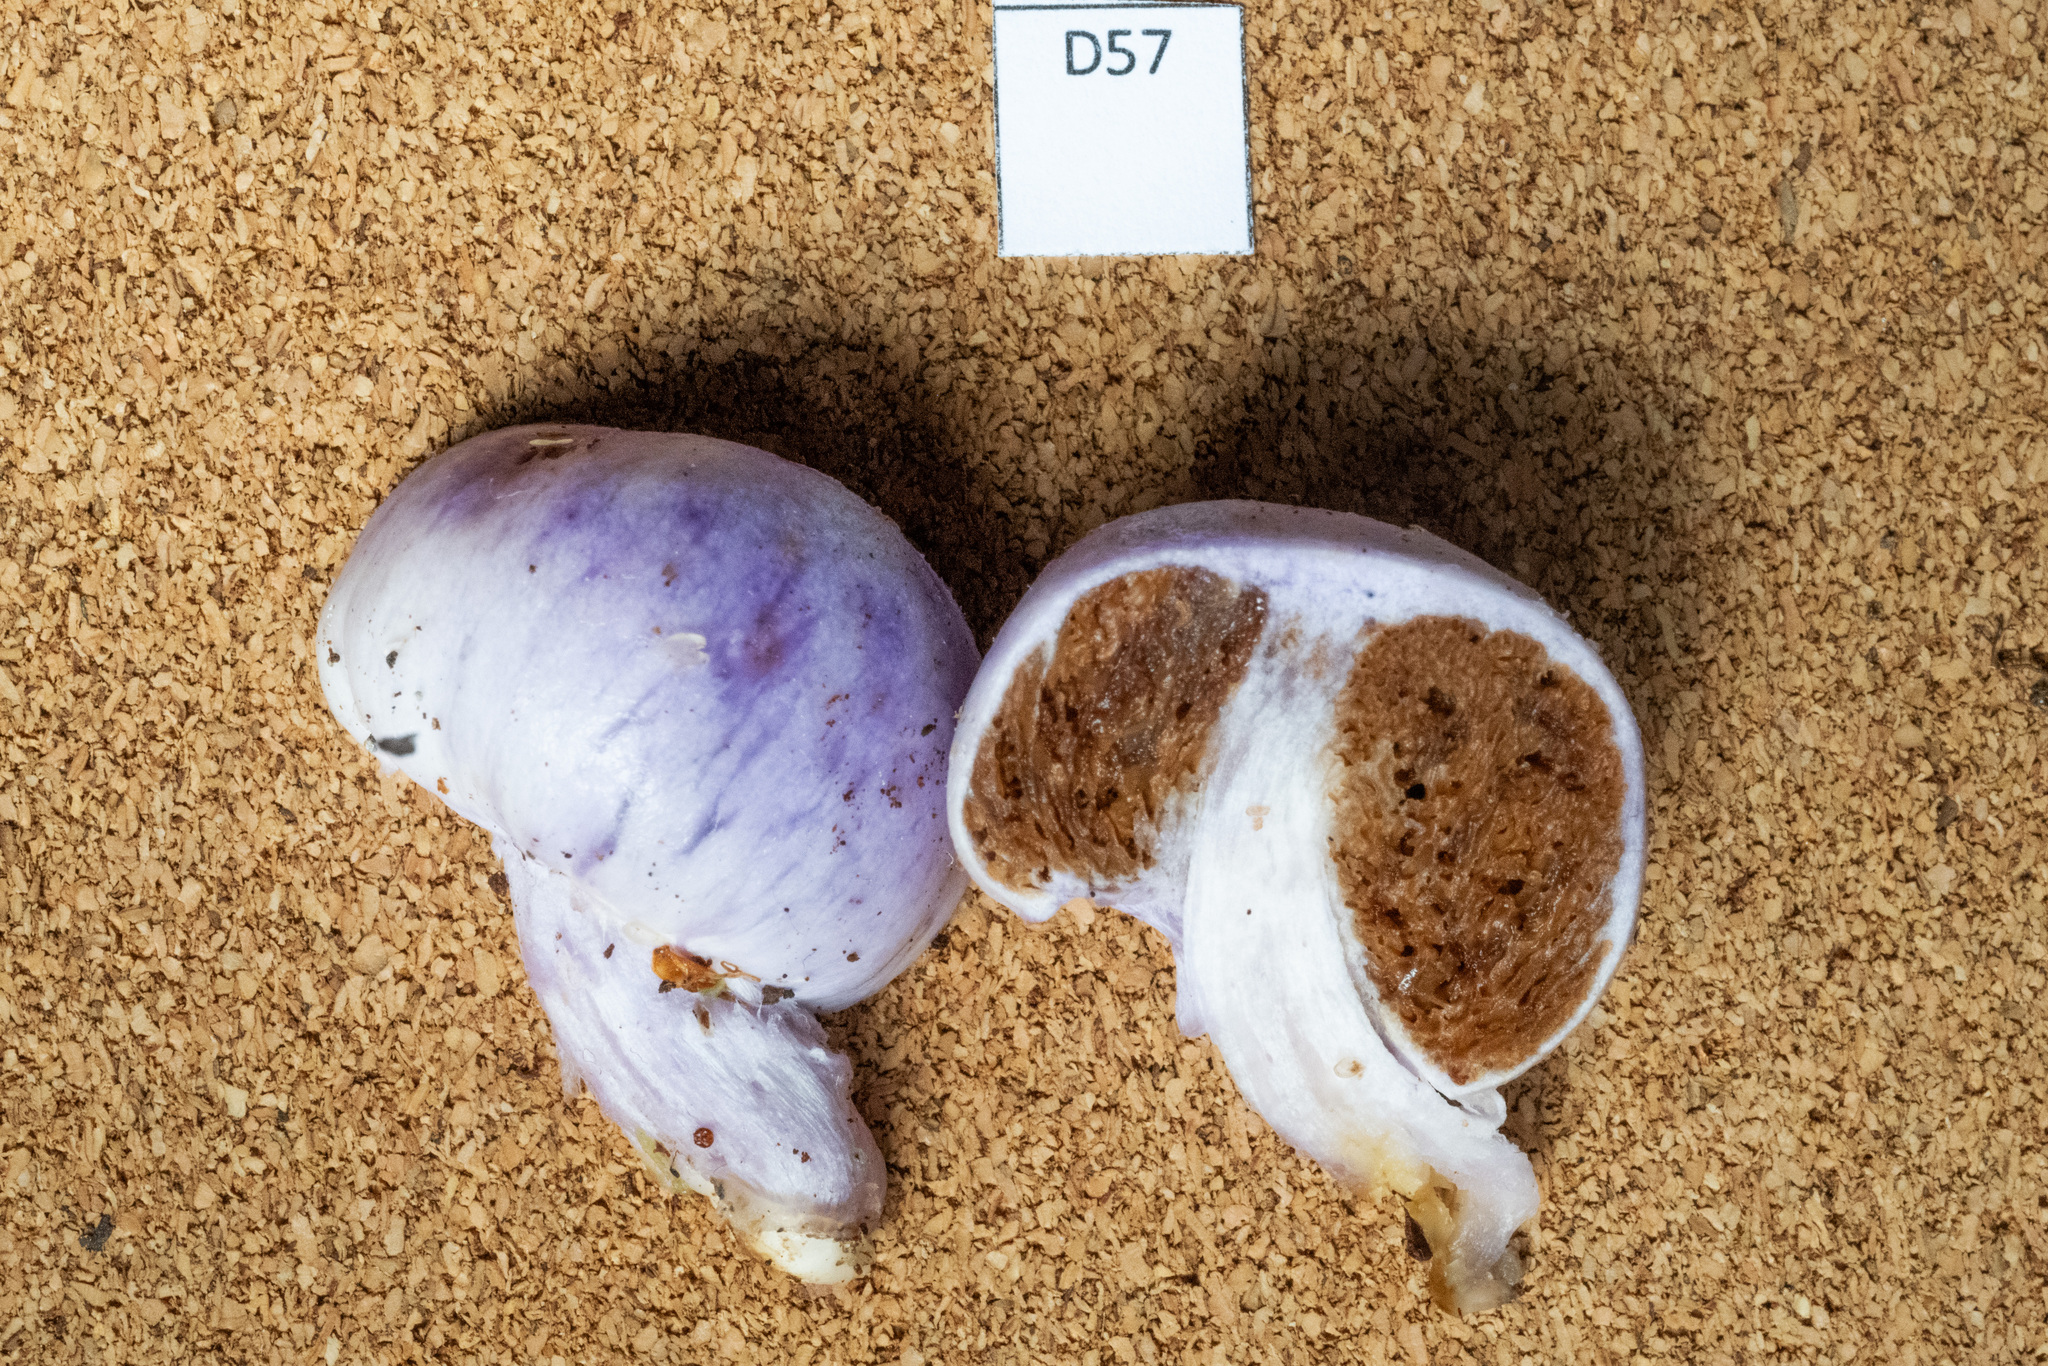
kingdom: Fungi
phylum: Basidiomycota
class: Agaricomycetes
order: Agaricales
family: Cortinariaceae
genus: Cortinarius
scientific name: Cortinarius violaceovolvatus
